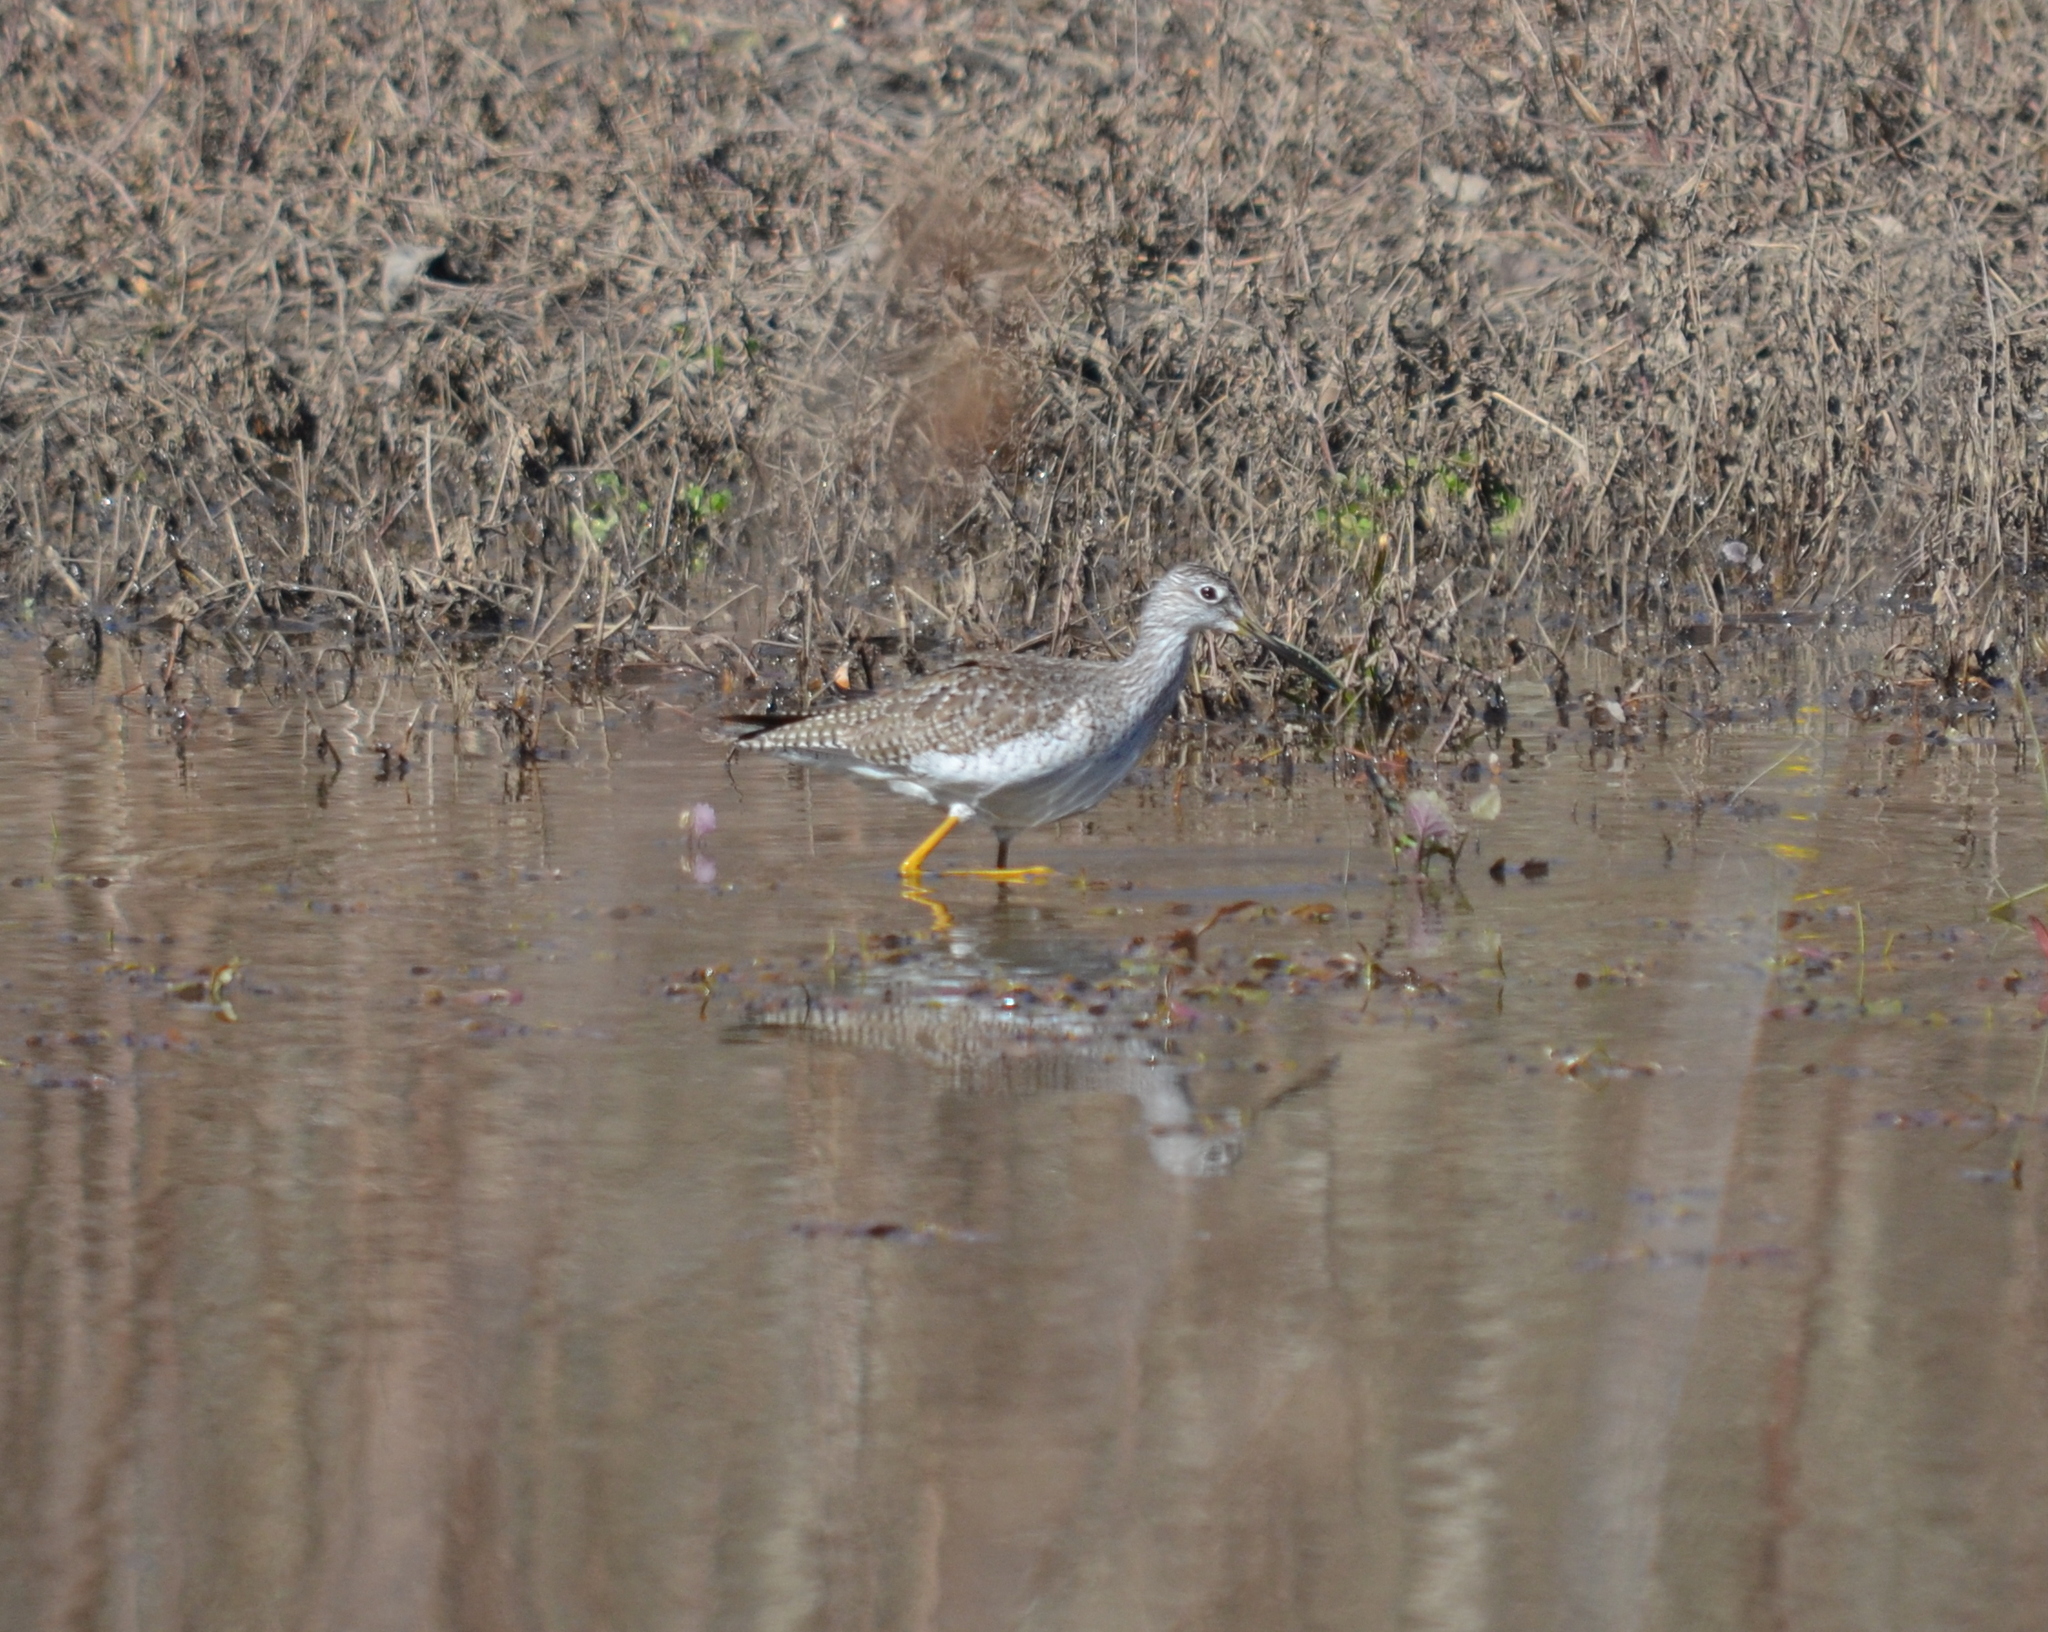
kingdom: Animalia
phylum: Chordata
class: Aves
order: Charadriiformes
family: Scolopacidae
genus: Tringa
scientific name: Tringa melanoleuca
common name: Greater yellowlegs
